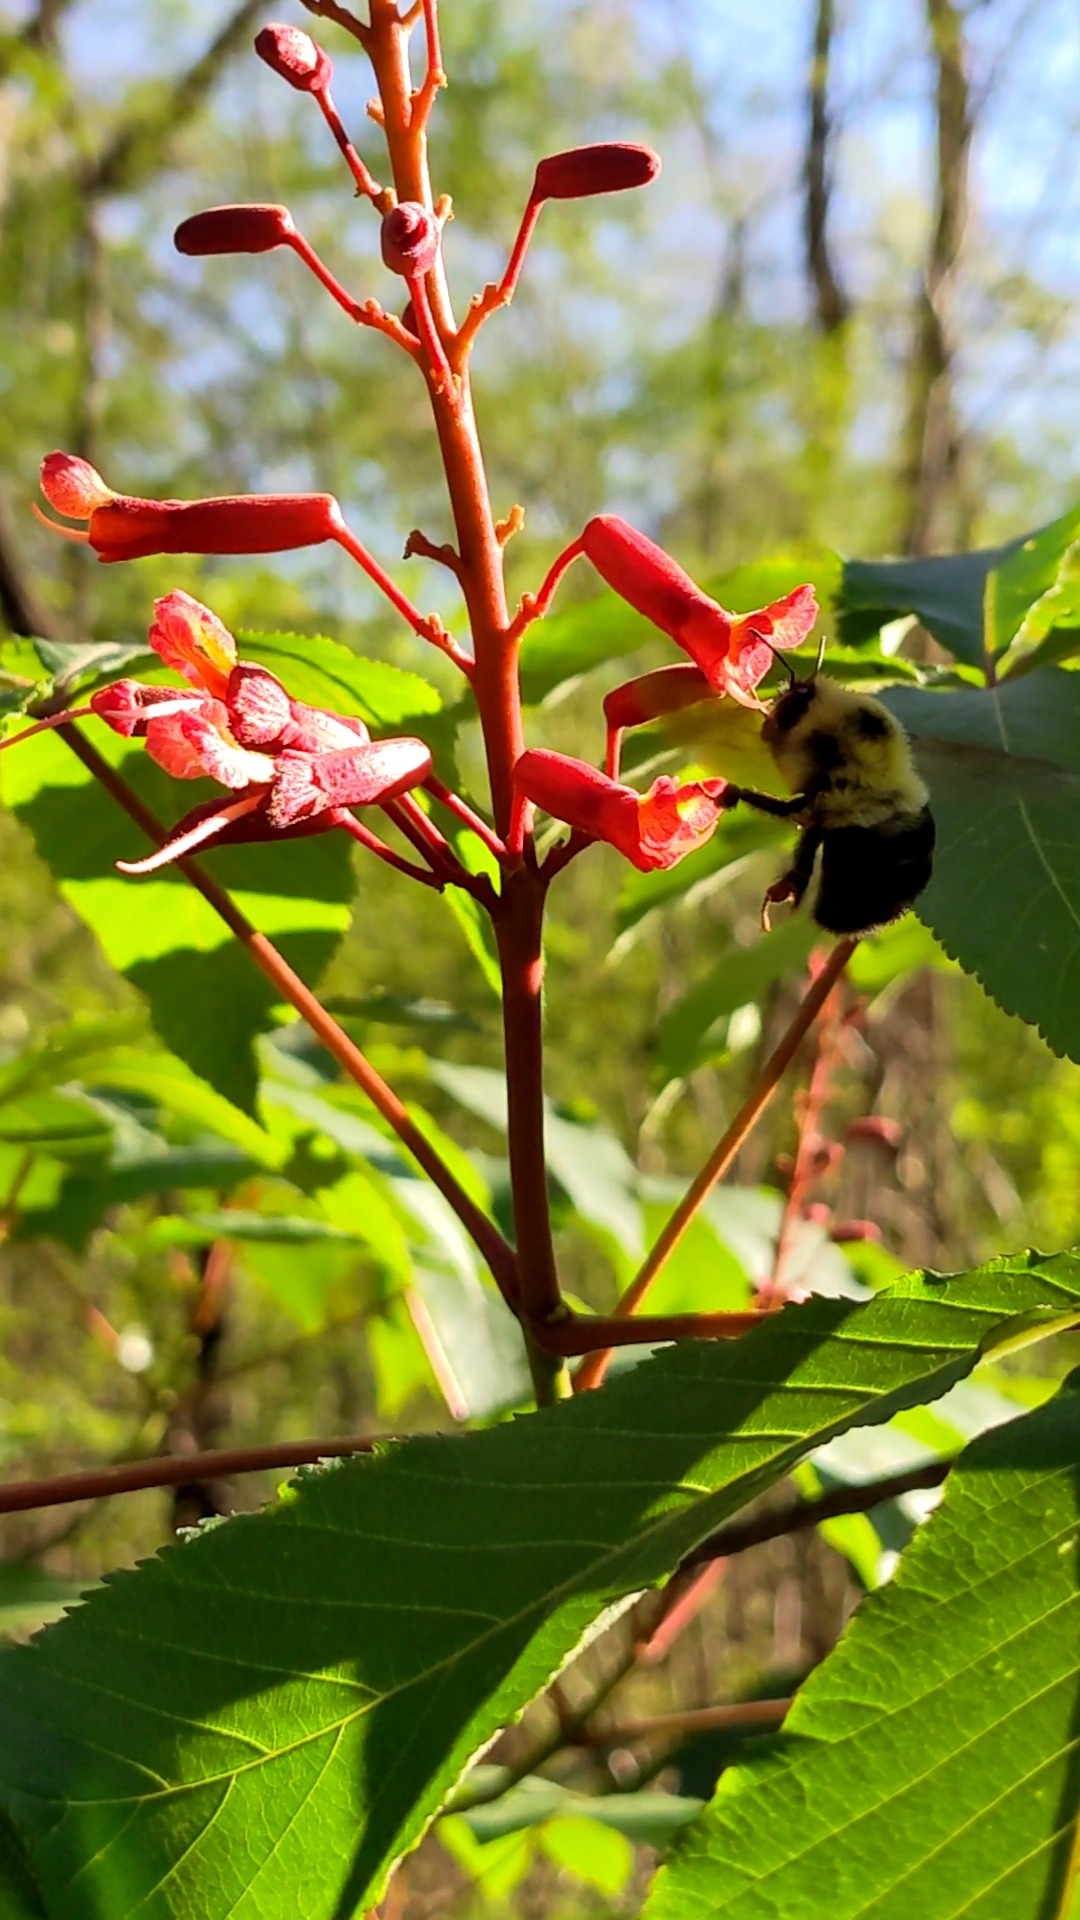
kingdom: Animalia
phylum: Arthropoda
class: Insecta
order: Hymenoptera
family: Apidae
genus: Bombus
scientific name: Bombus bimaculatus
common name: Two-spotted bumble bee
